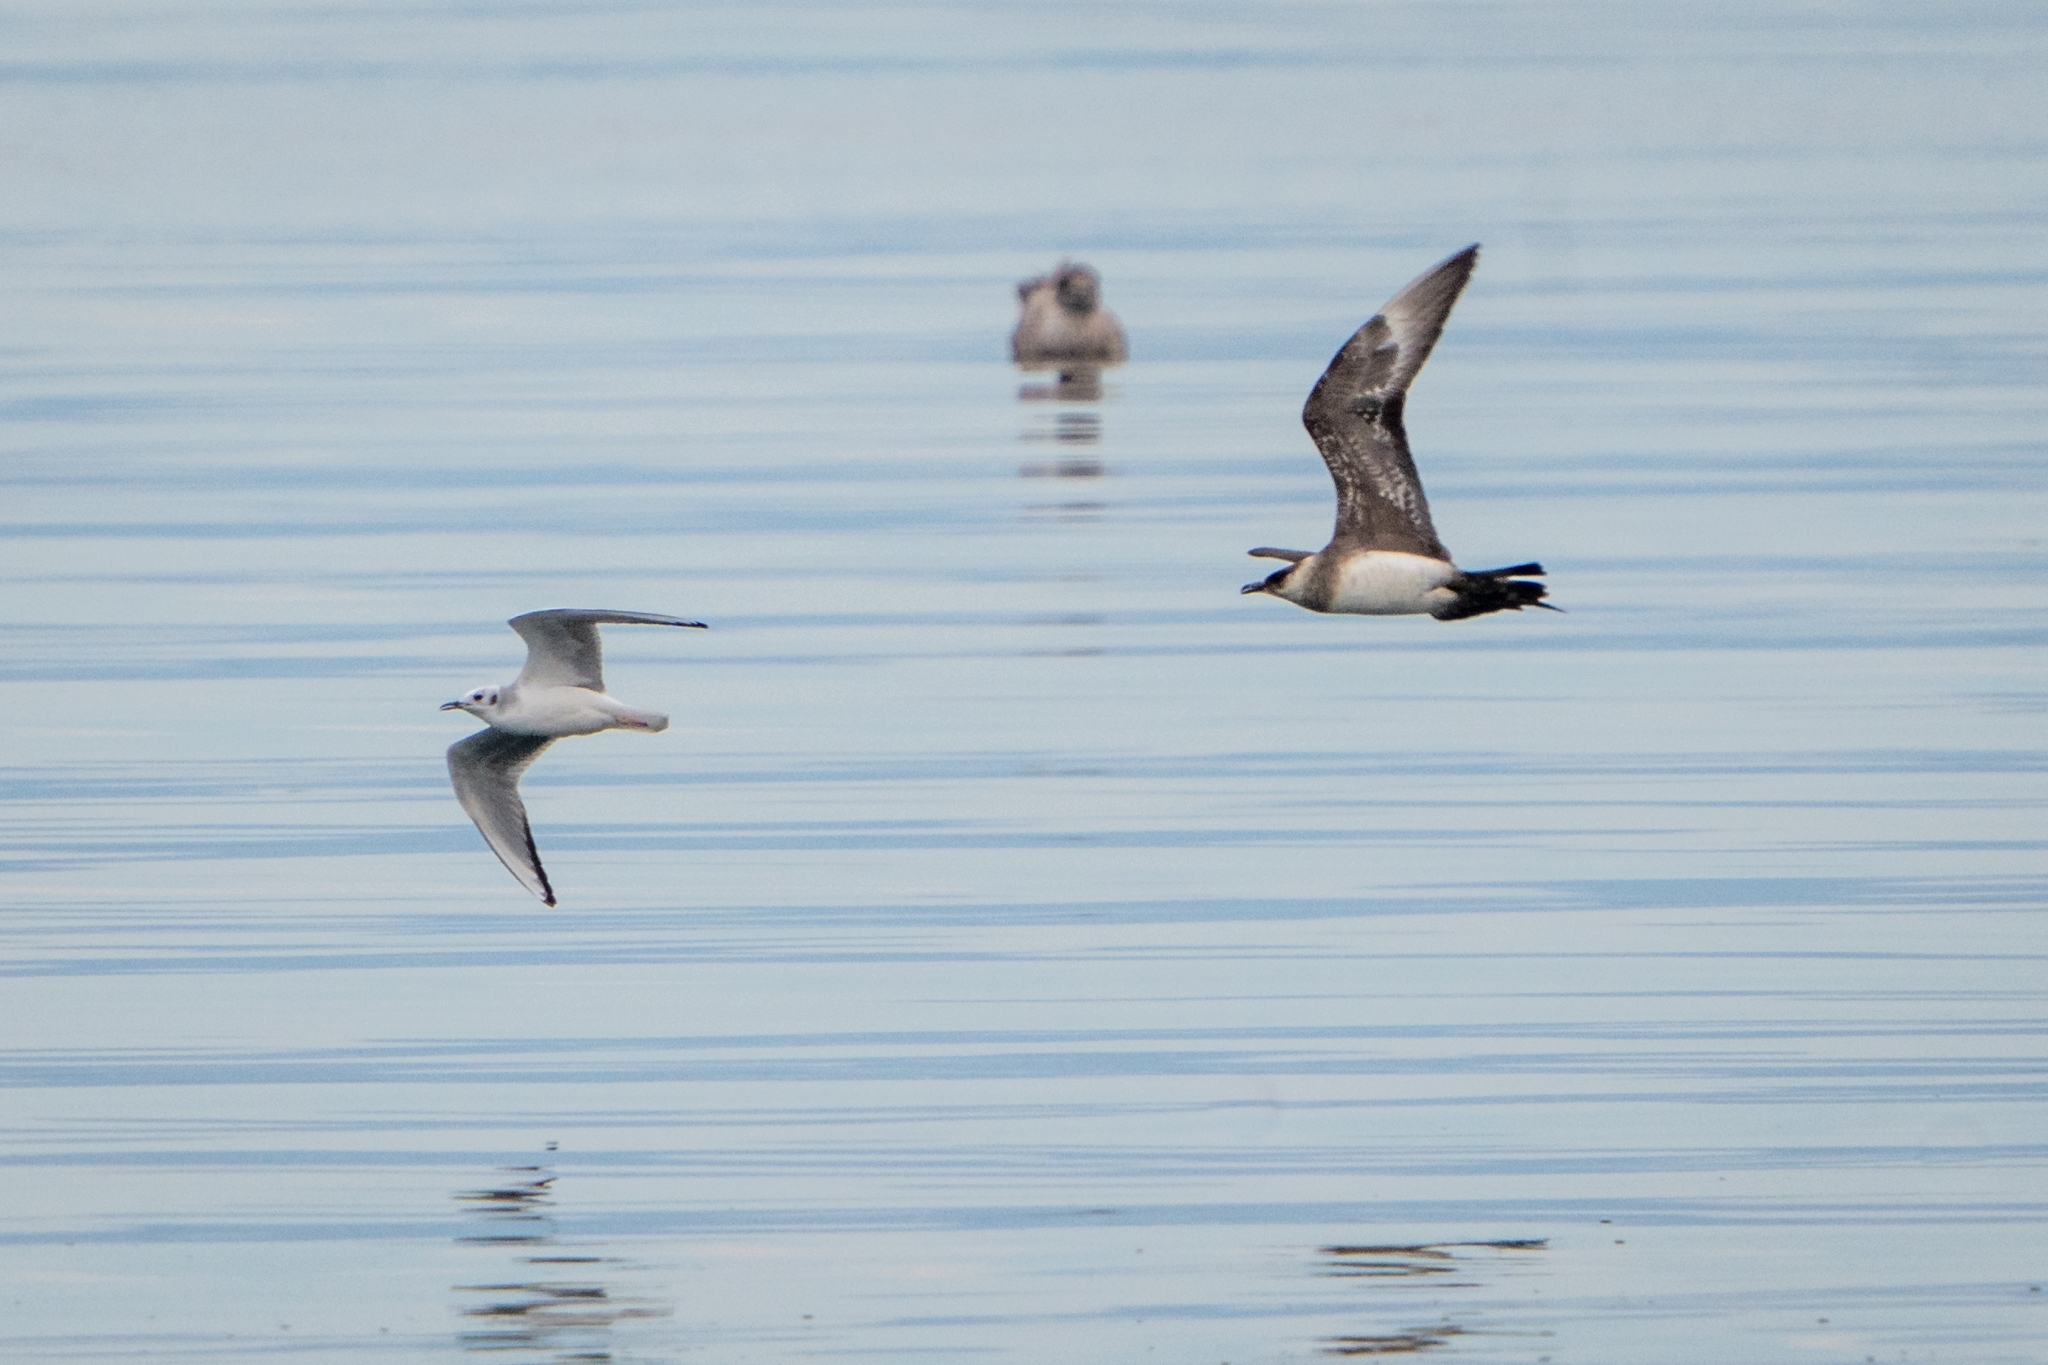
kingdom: Animalia
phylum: Chordata
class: Aves
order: Charadriiformes
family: Stercorariidae
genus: Stercorarius
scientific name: Stercorarius parasiticus
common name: Parasitic jaeger
